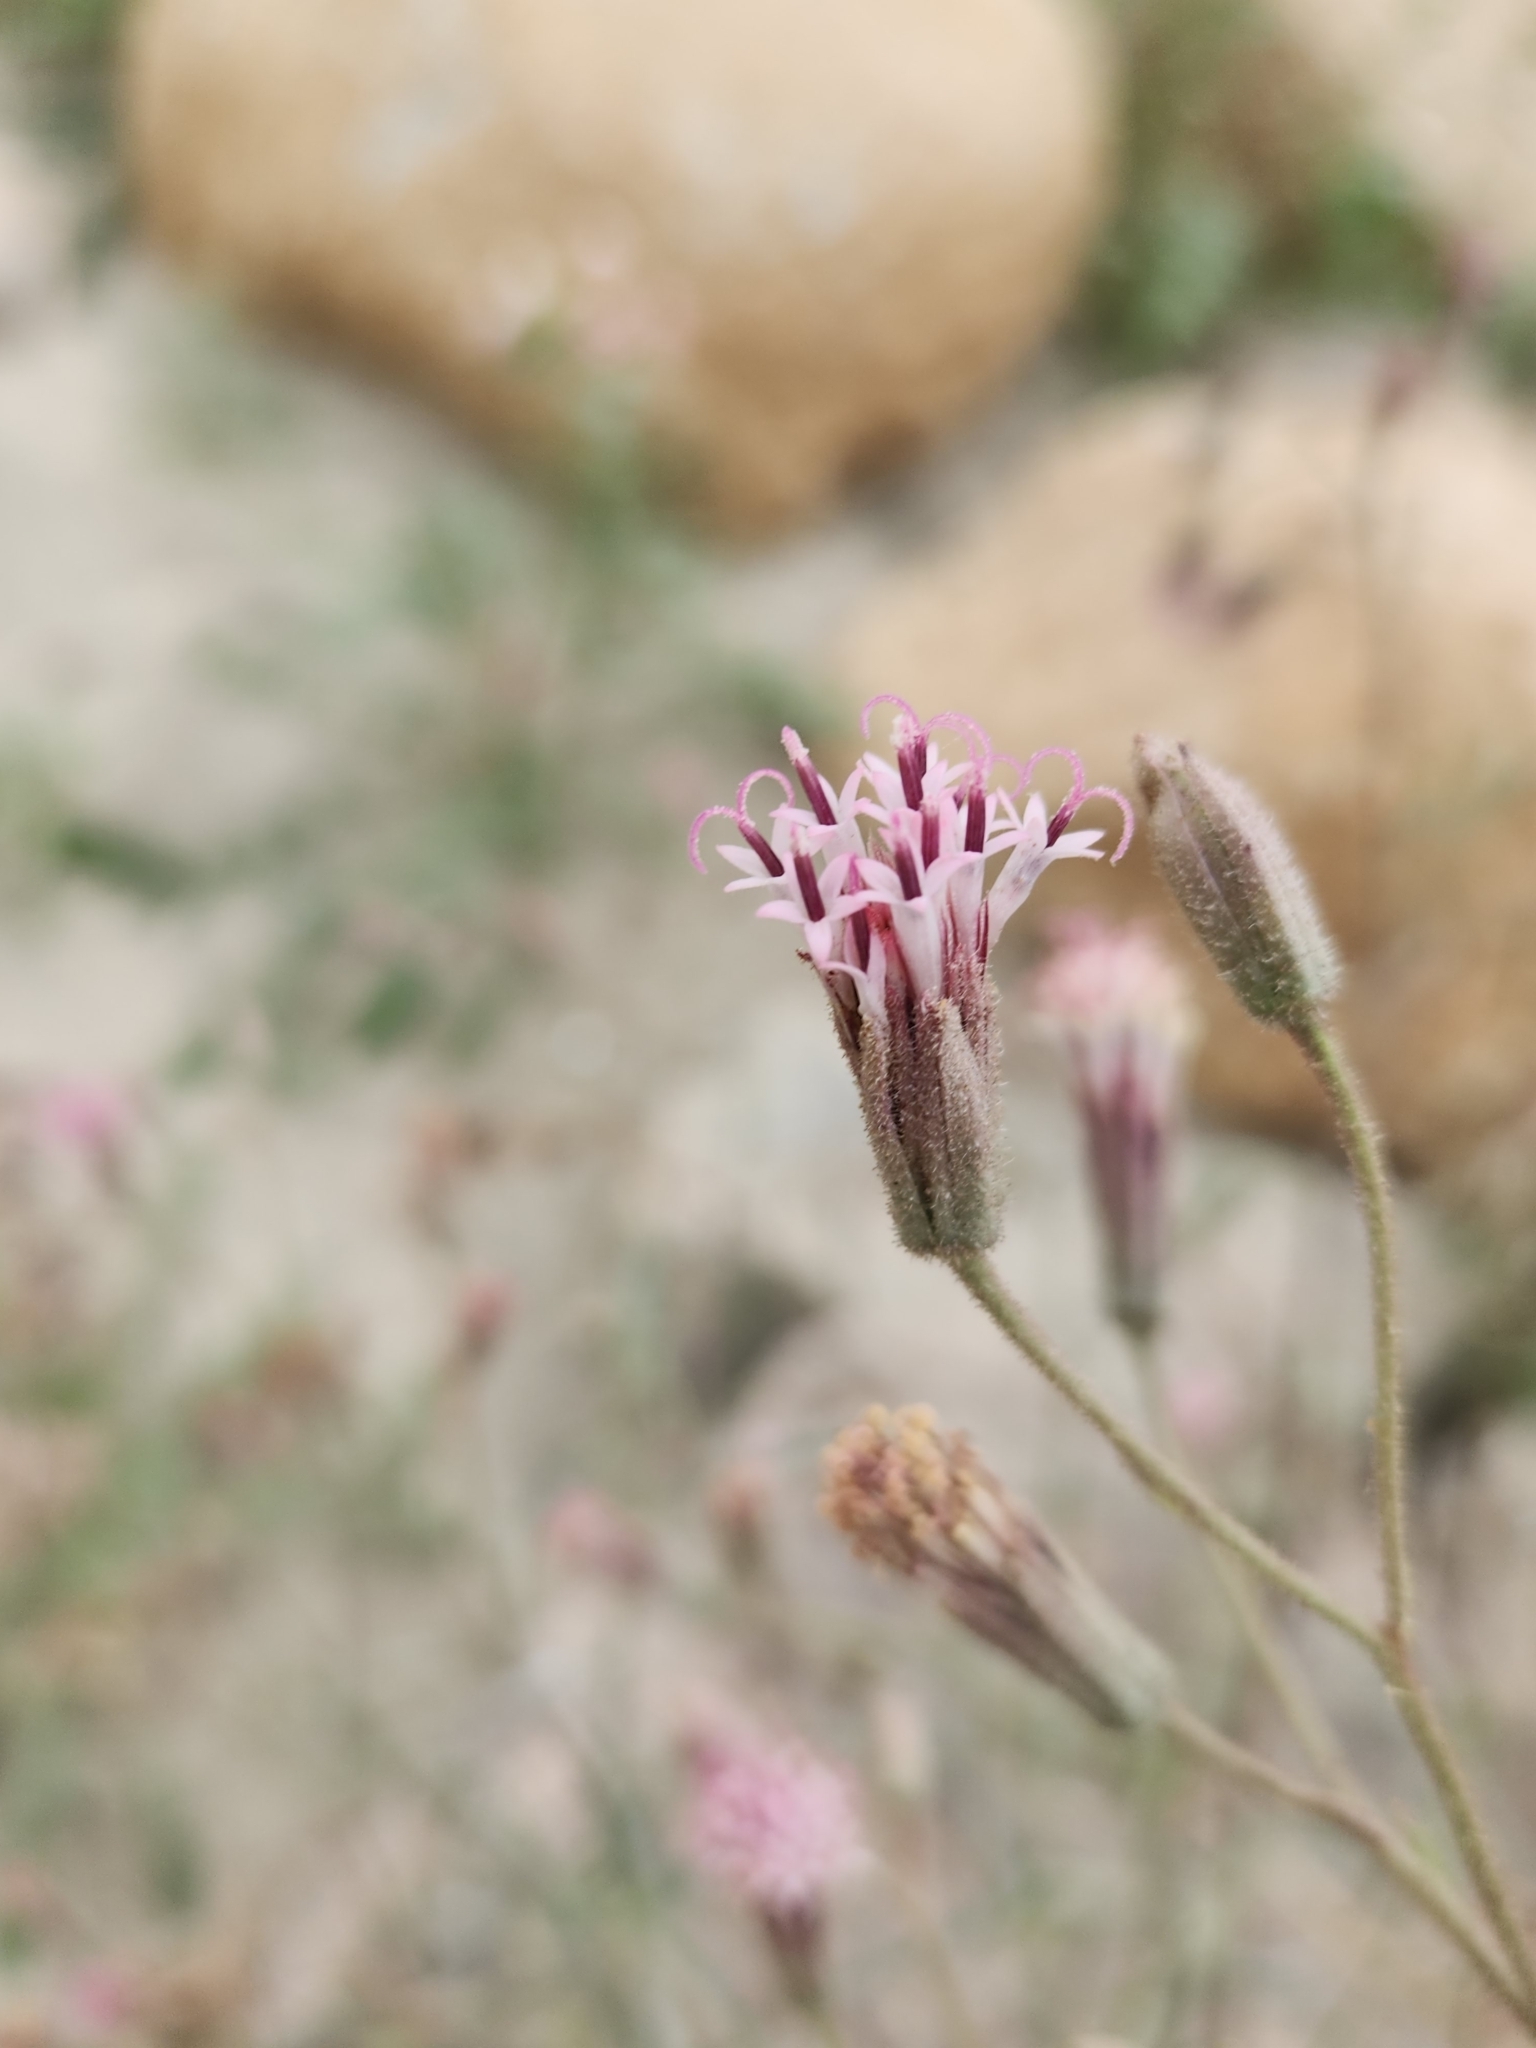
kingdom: Plantae
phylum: Tracheophyta
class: Magnoliopsida
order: Asterales
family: Asteraceae
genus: Palafoxia
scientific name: Palafoxia arida
